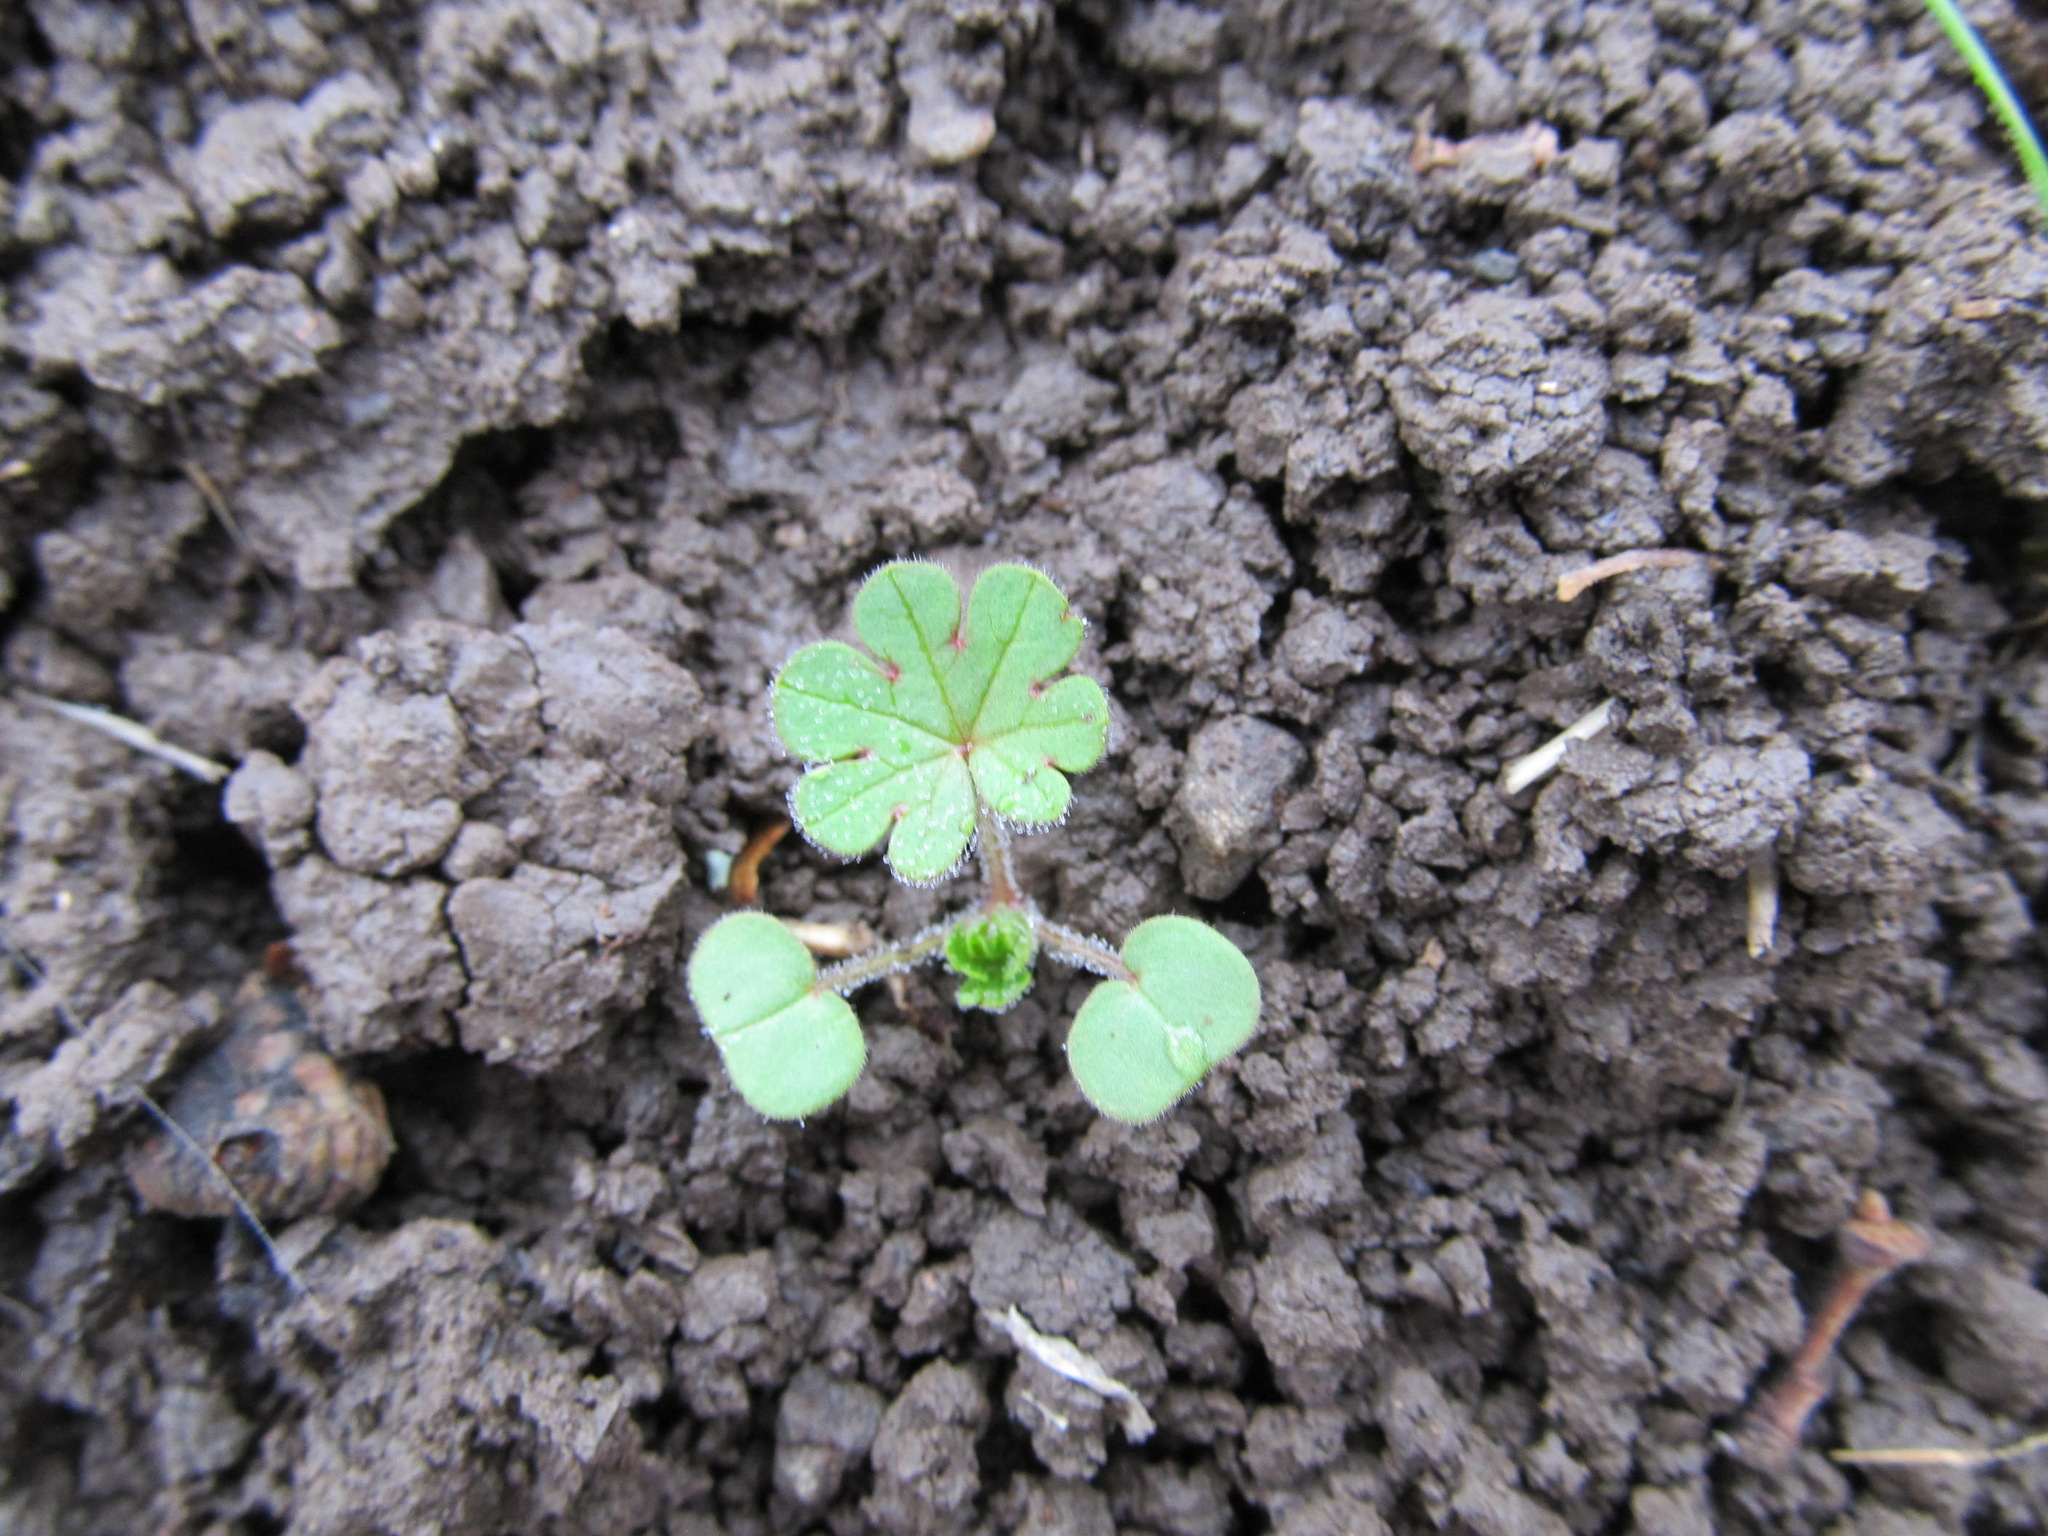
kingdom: Plantae
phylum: Tracheophyta
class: Magnoliopsida
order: Geraniales
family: Geraniaceae
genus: Geranium
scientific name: Geranium molle
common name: Dove's-foot crane's-bill
